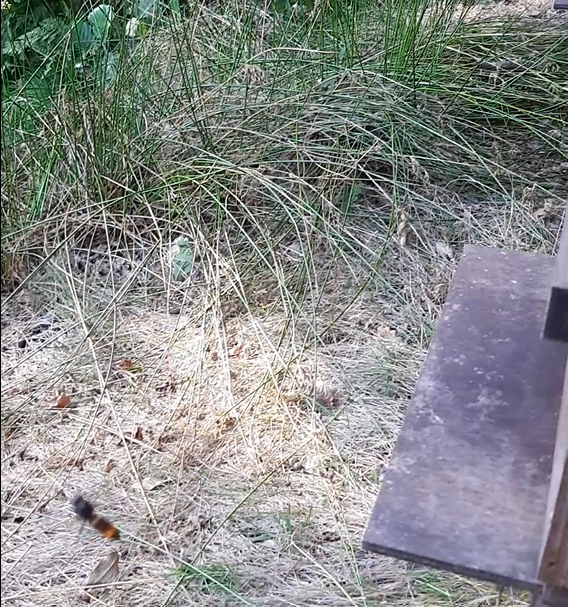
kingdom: Animalia
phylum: Arthropoda
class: Insecta
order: Hymenoptera
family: Vespidae
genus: Vespa
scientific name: Vespa velutina
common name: Asian hornet
